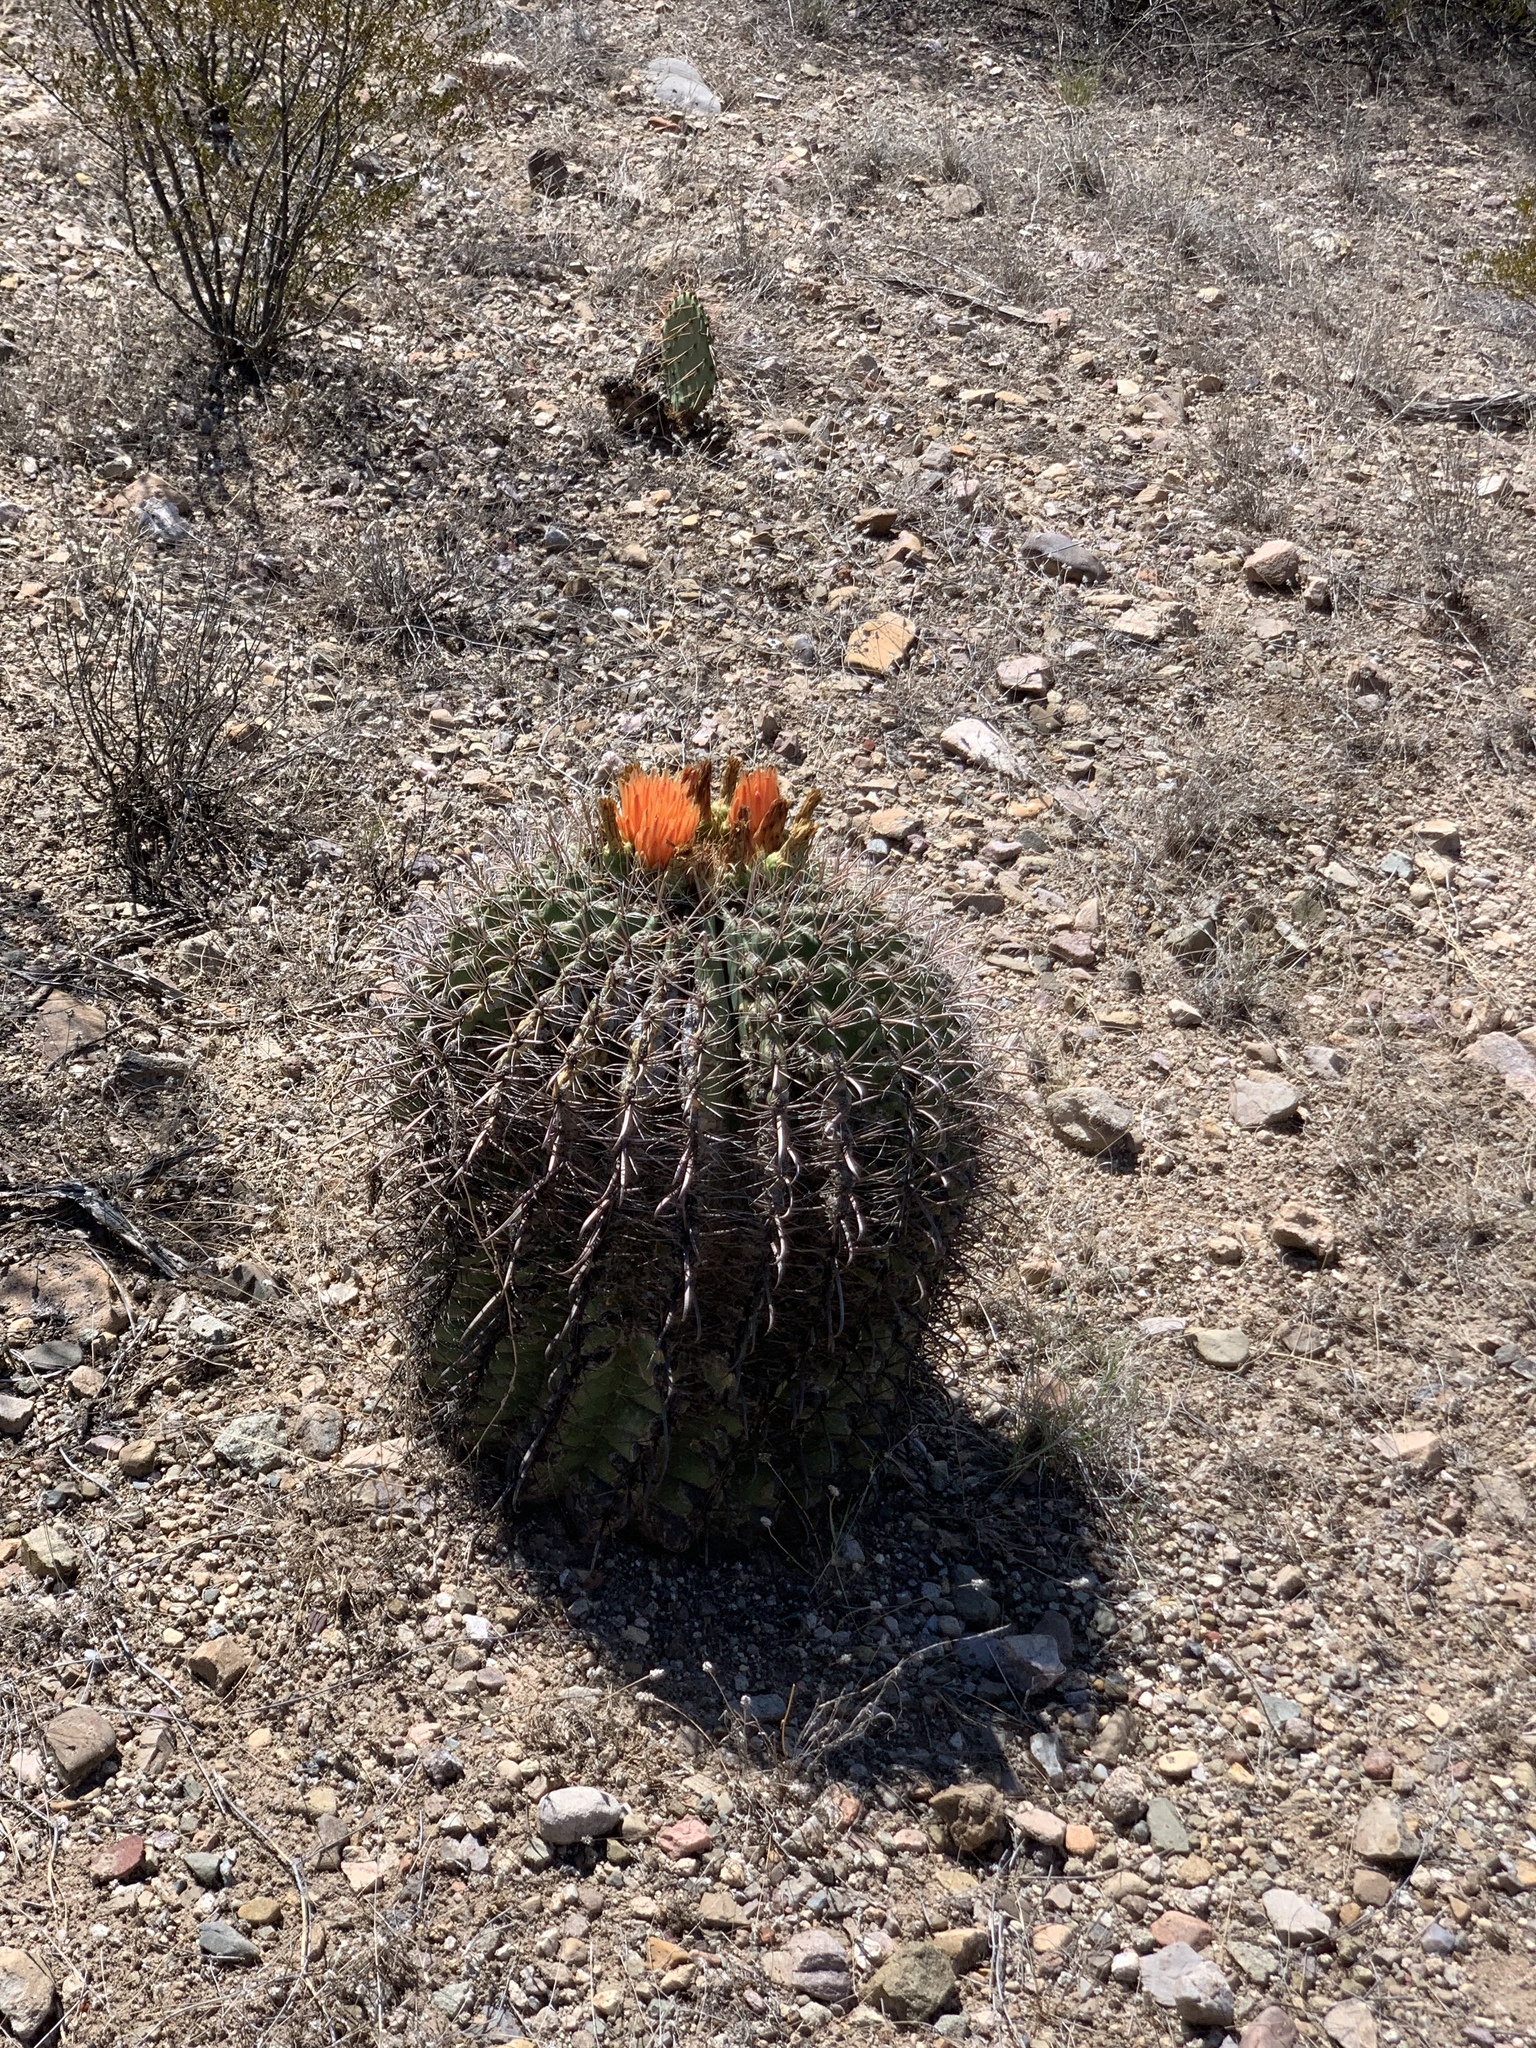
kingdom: Plantae
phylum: Tracheophyta
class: Magnoliopsida
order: Caryophyllales
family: Cactaceae
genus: Ferocactus
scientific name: Ferocactus wislizeni
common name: Candy barrel cactus
